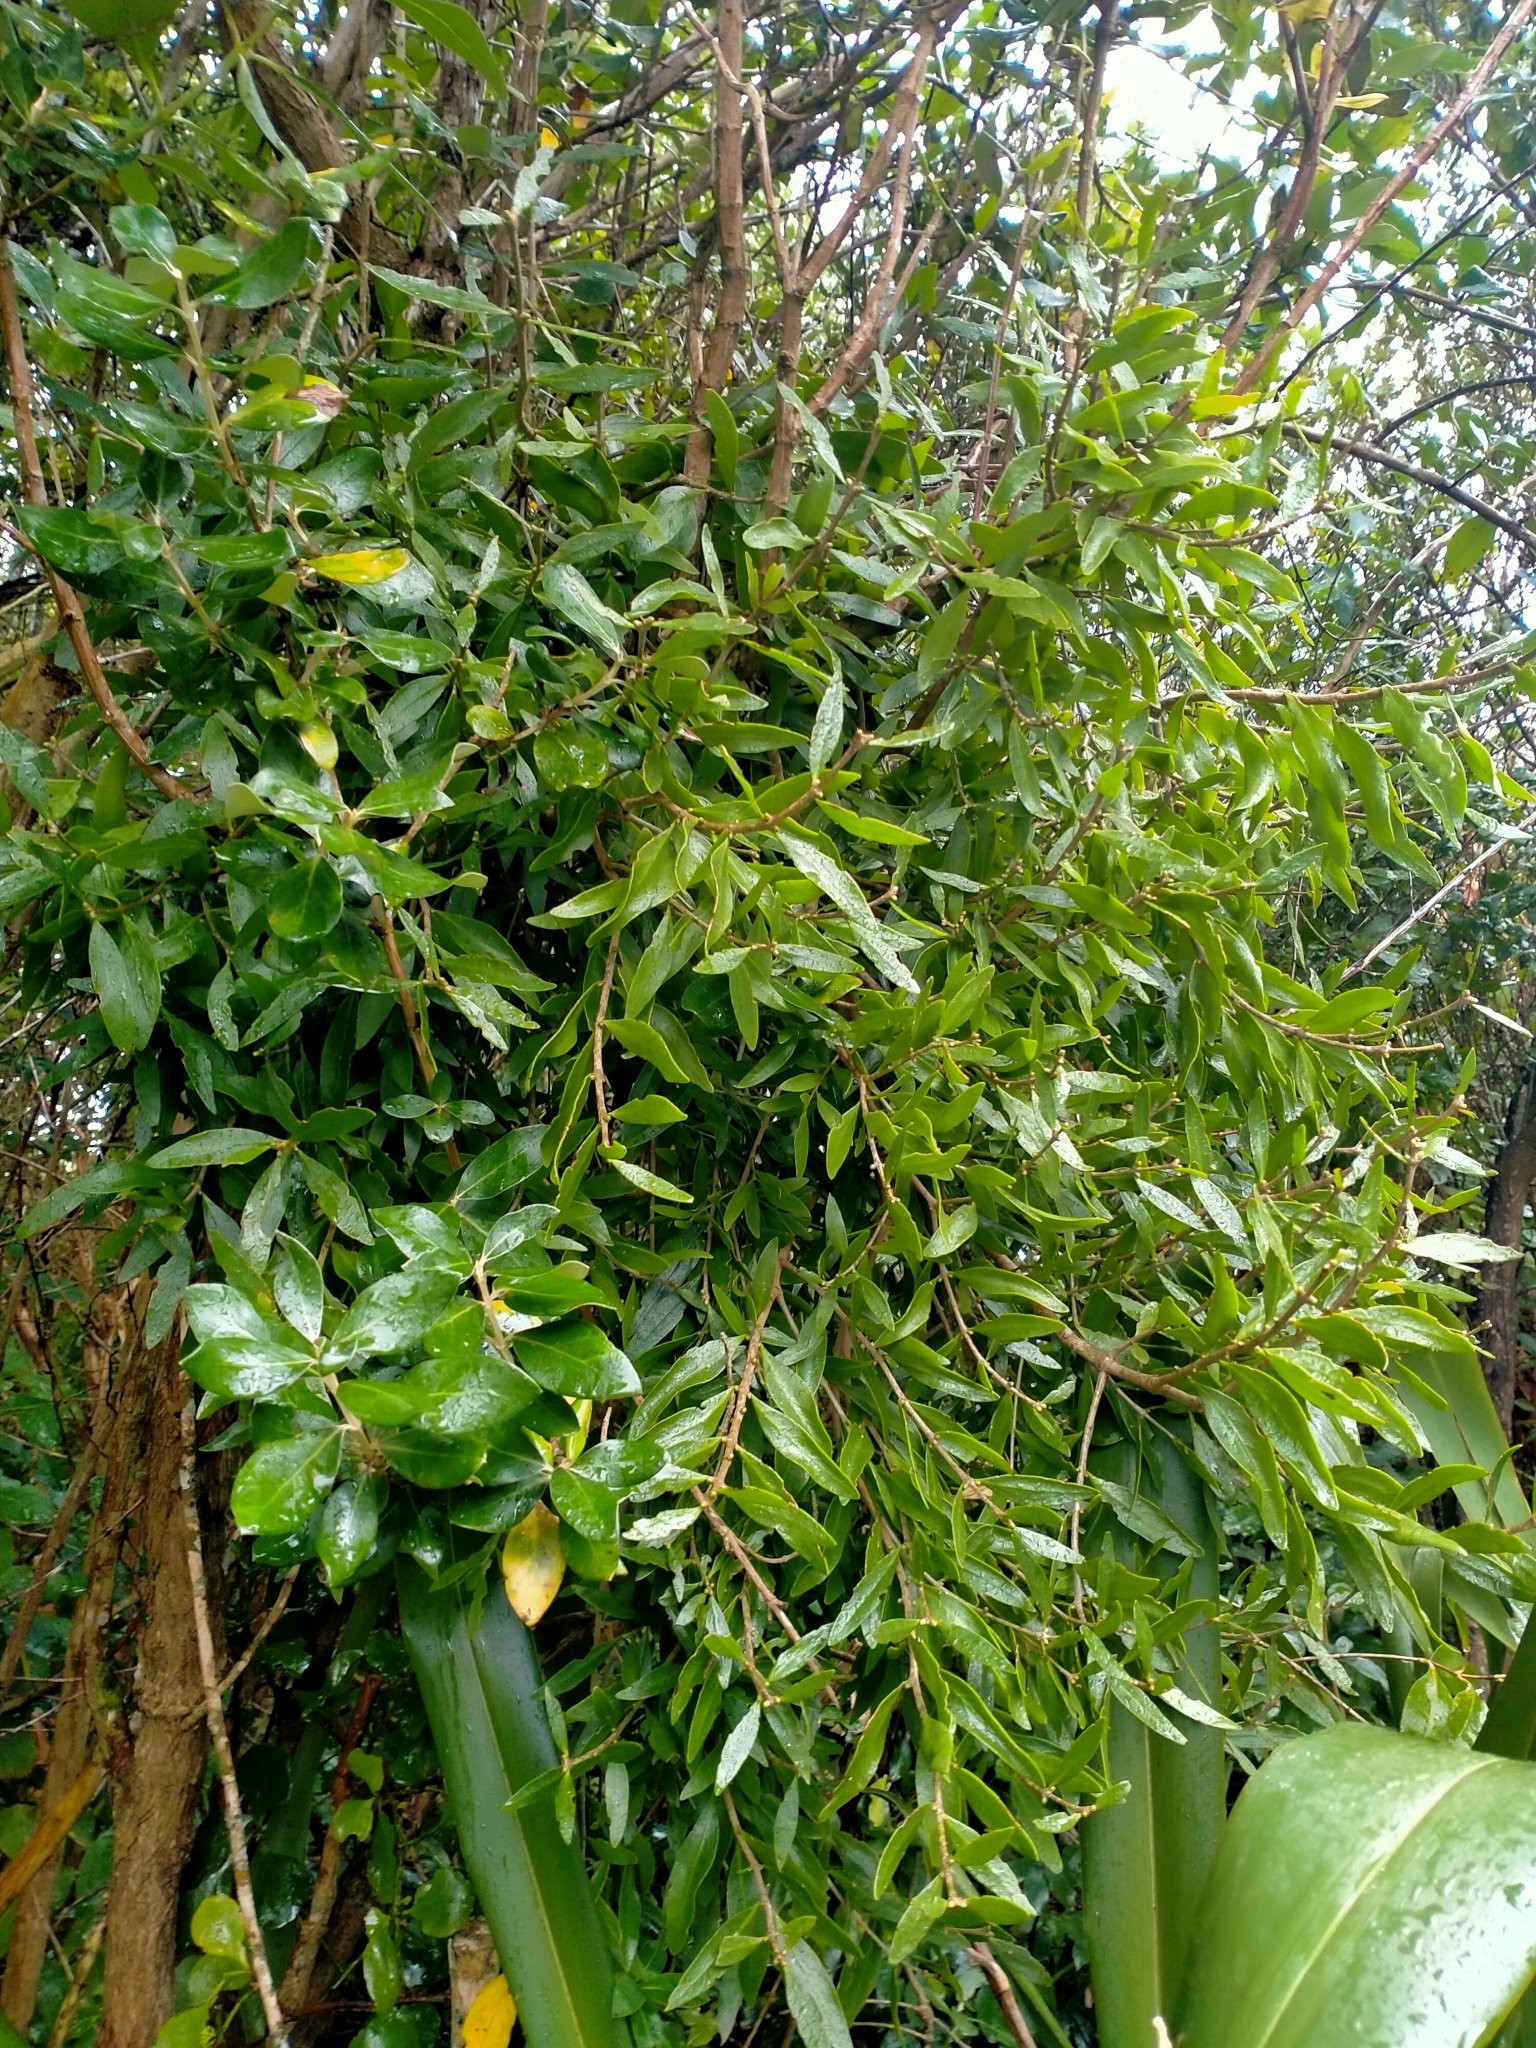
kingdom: Plantae
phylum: Tracheophyta
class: Magnoliopsida
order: Santalales
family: Loranthaceae
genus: Tupeia
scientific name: Tupeia antarctica
